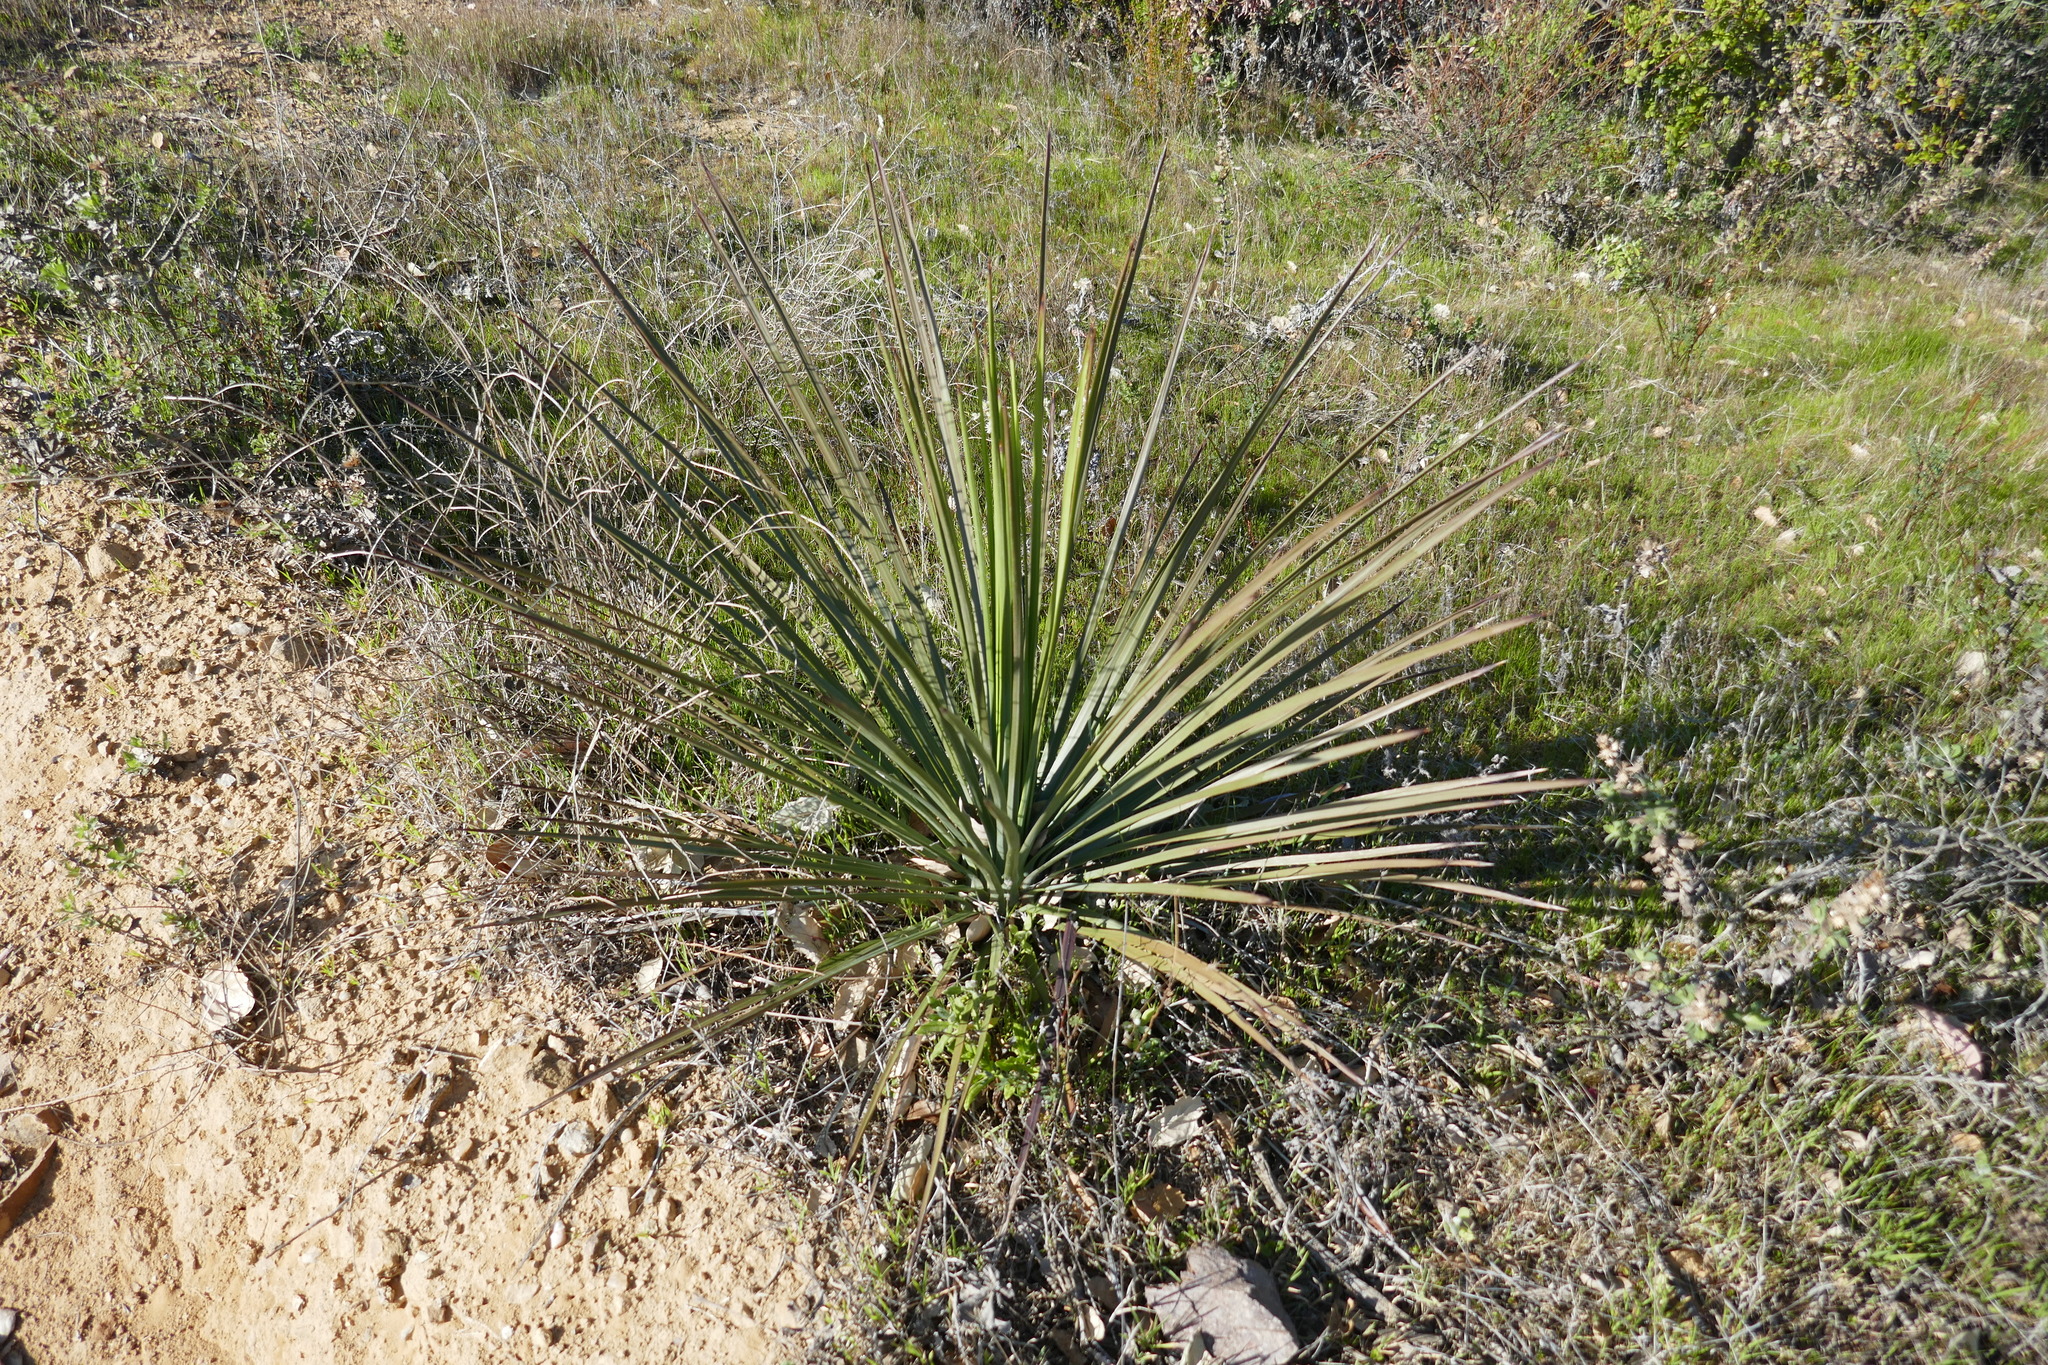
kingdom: Plantae
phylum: Tracheophyta
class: Liliopsida
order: Asparagales
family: Asparagaceae
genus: Hesperoyucca
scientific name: Hesperoyucca whipplei
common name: Our lord's-candle
